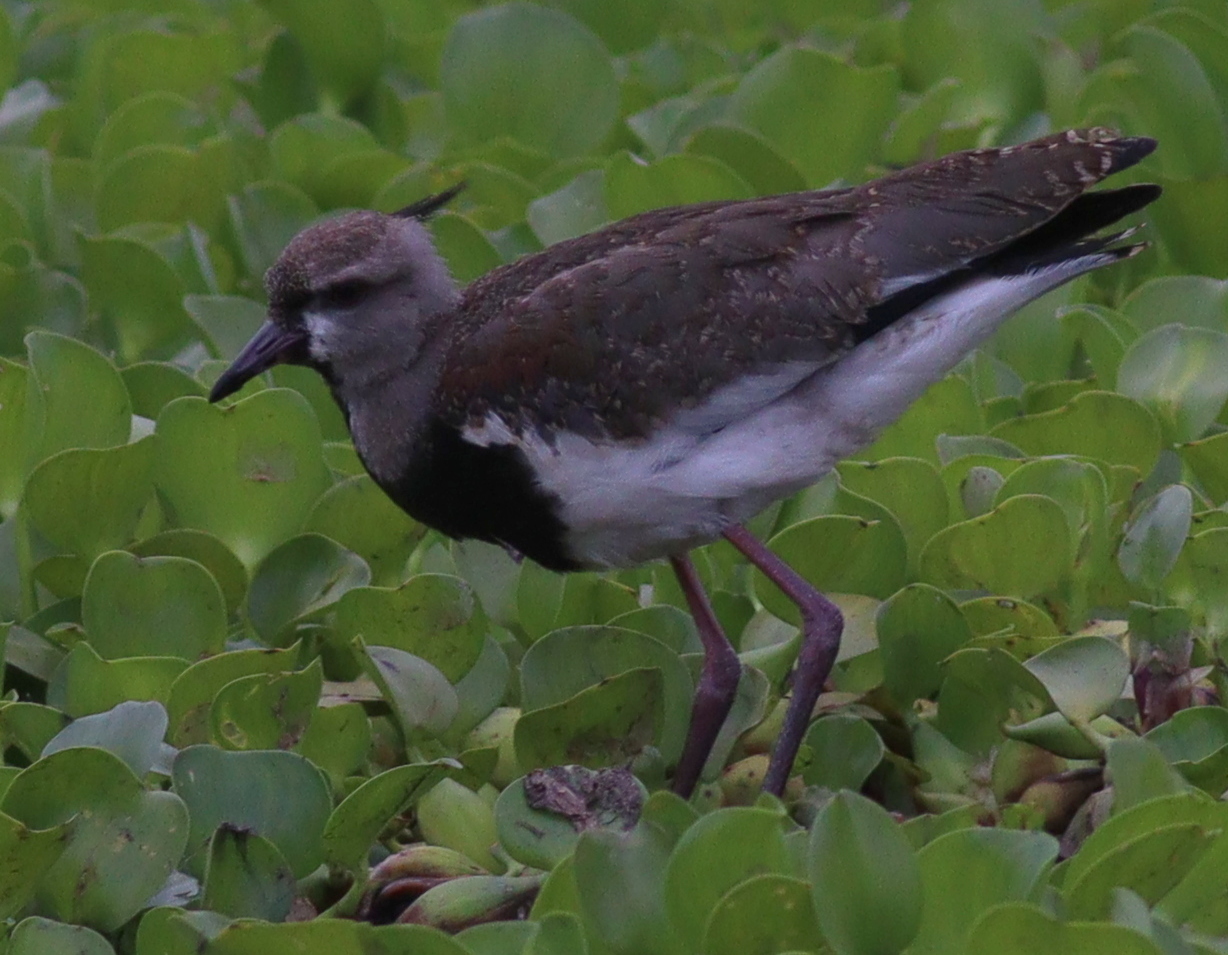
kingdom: Animalia
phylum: Chordata
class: Aves
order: Charadriiformes
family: Charadriidae
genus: Vanellus
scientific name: Vanellus chilensis
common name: Southern lapwing
